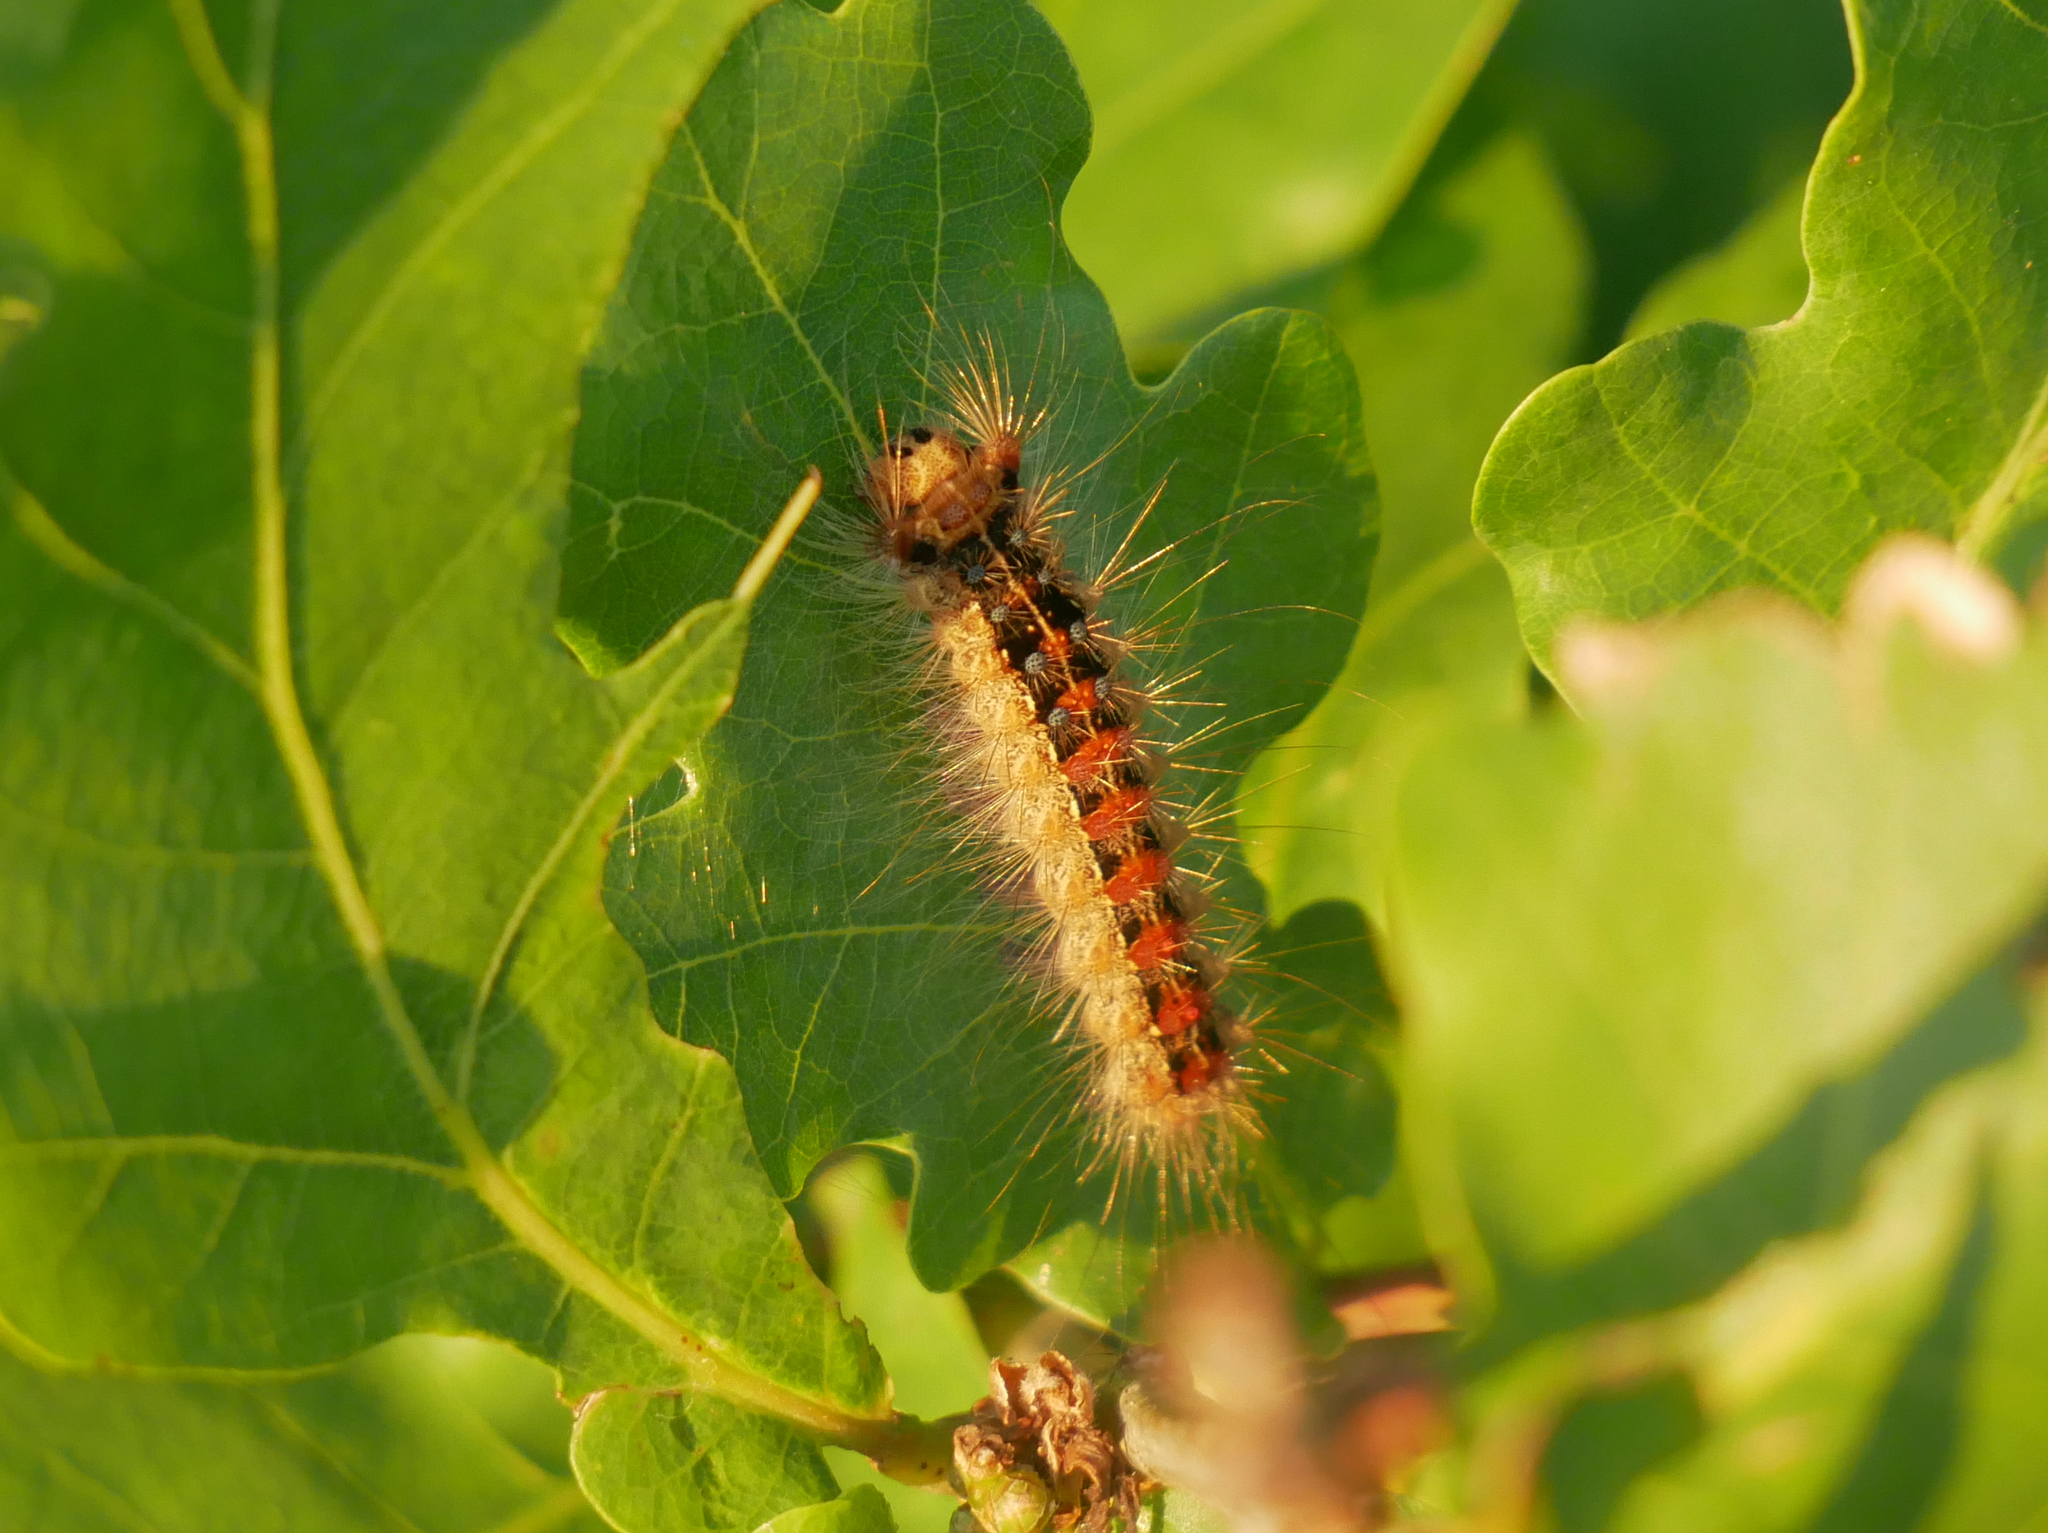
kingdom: Animalia
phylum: Arthropoda
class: Insecta
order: Lepidoptera
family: Erebidae
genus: Lymantria
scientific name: Lymantria dispar
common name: Gypsy moth
